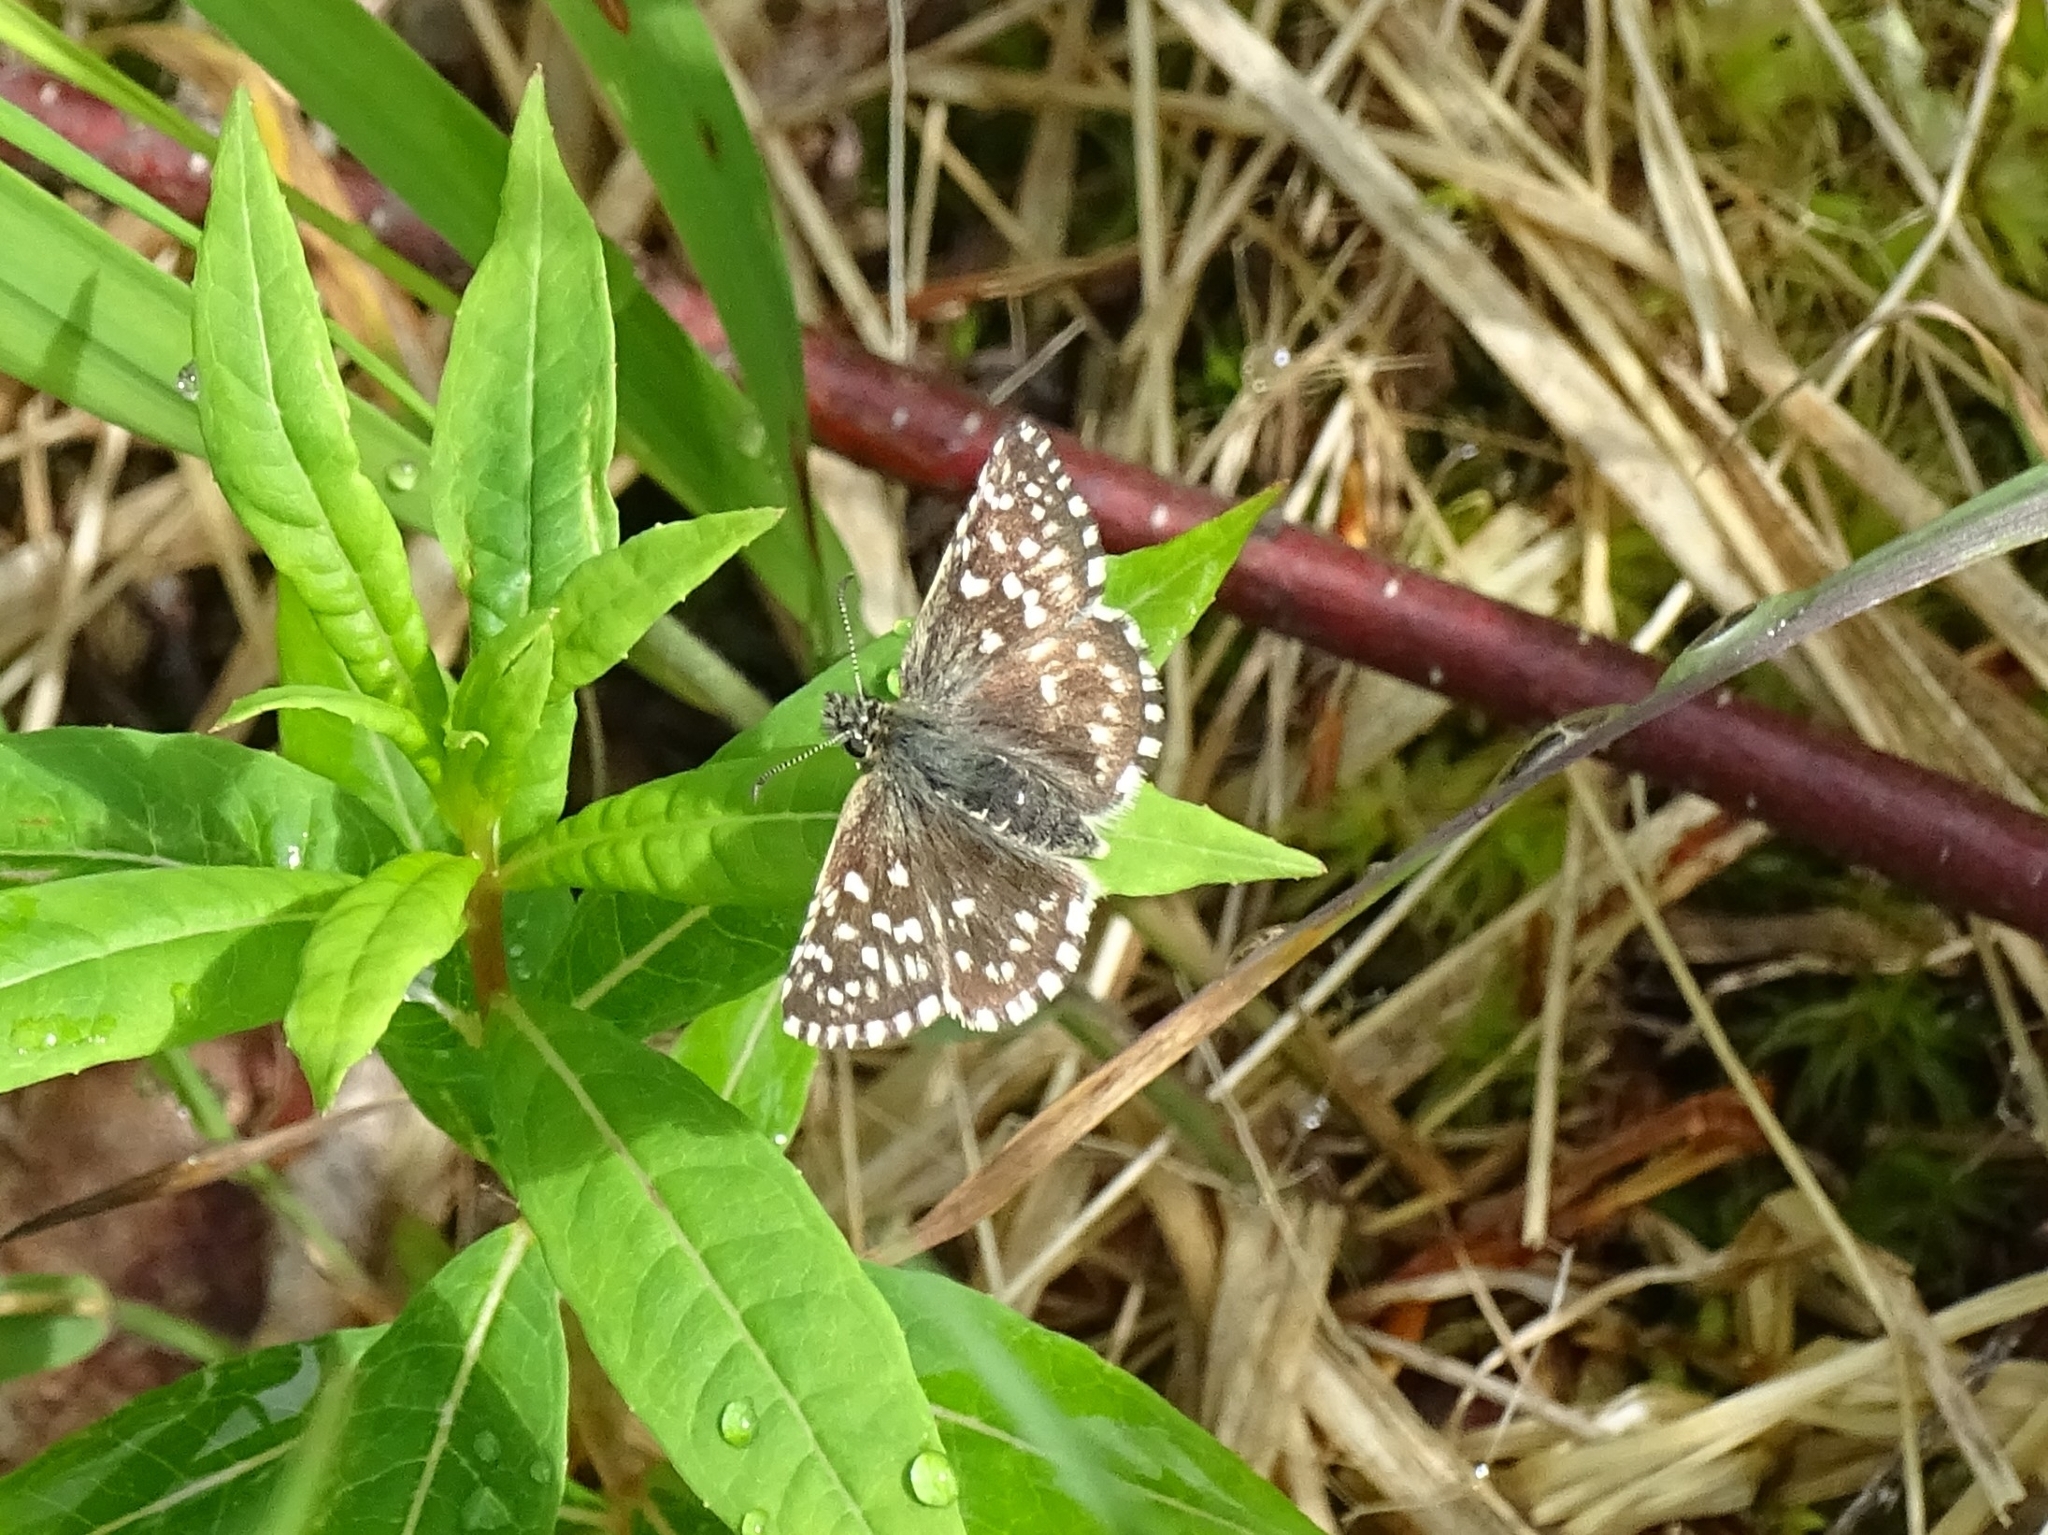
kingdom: Animalia
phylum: Arthropoda
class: Insecta
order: Lepidoptera
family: Hesperiidae
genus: Pyrgus
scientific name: Pyrgus malvae
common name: Grizzled skipper
